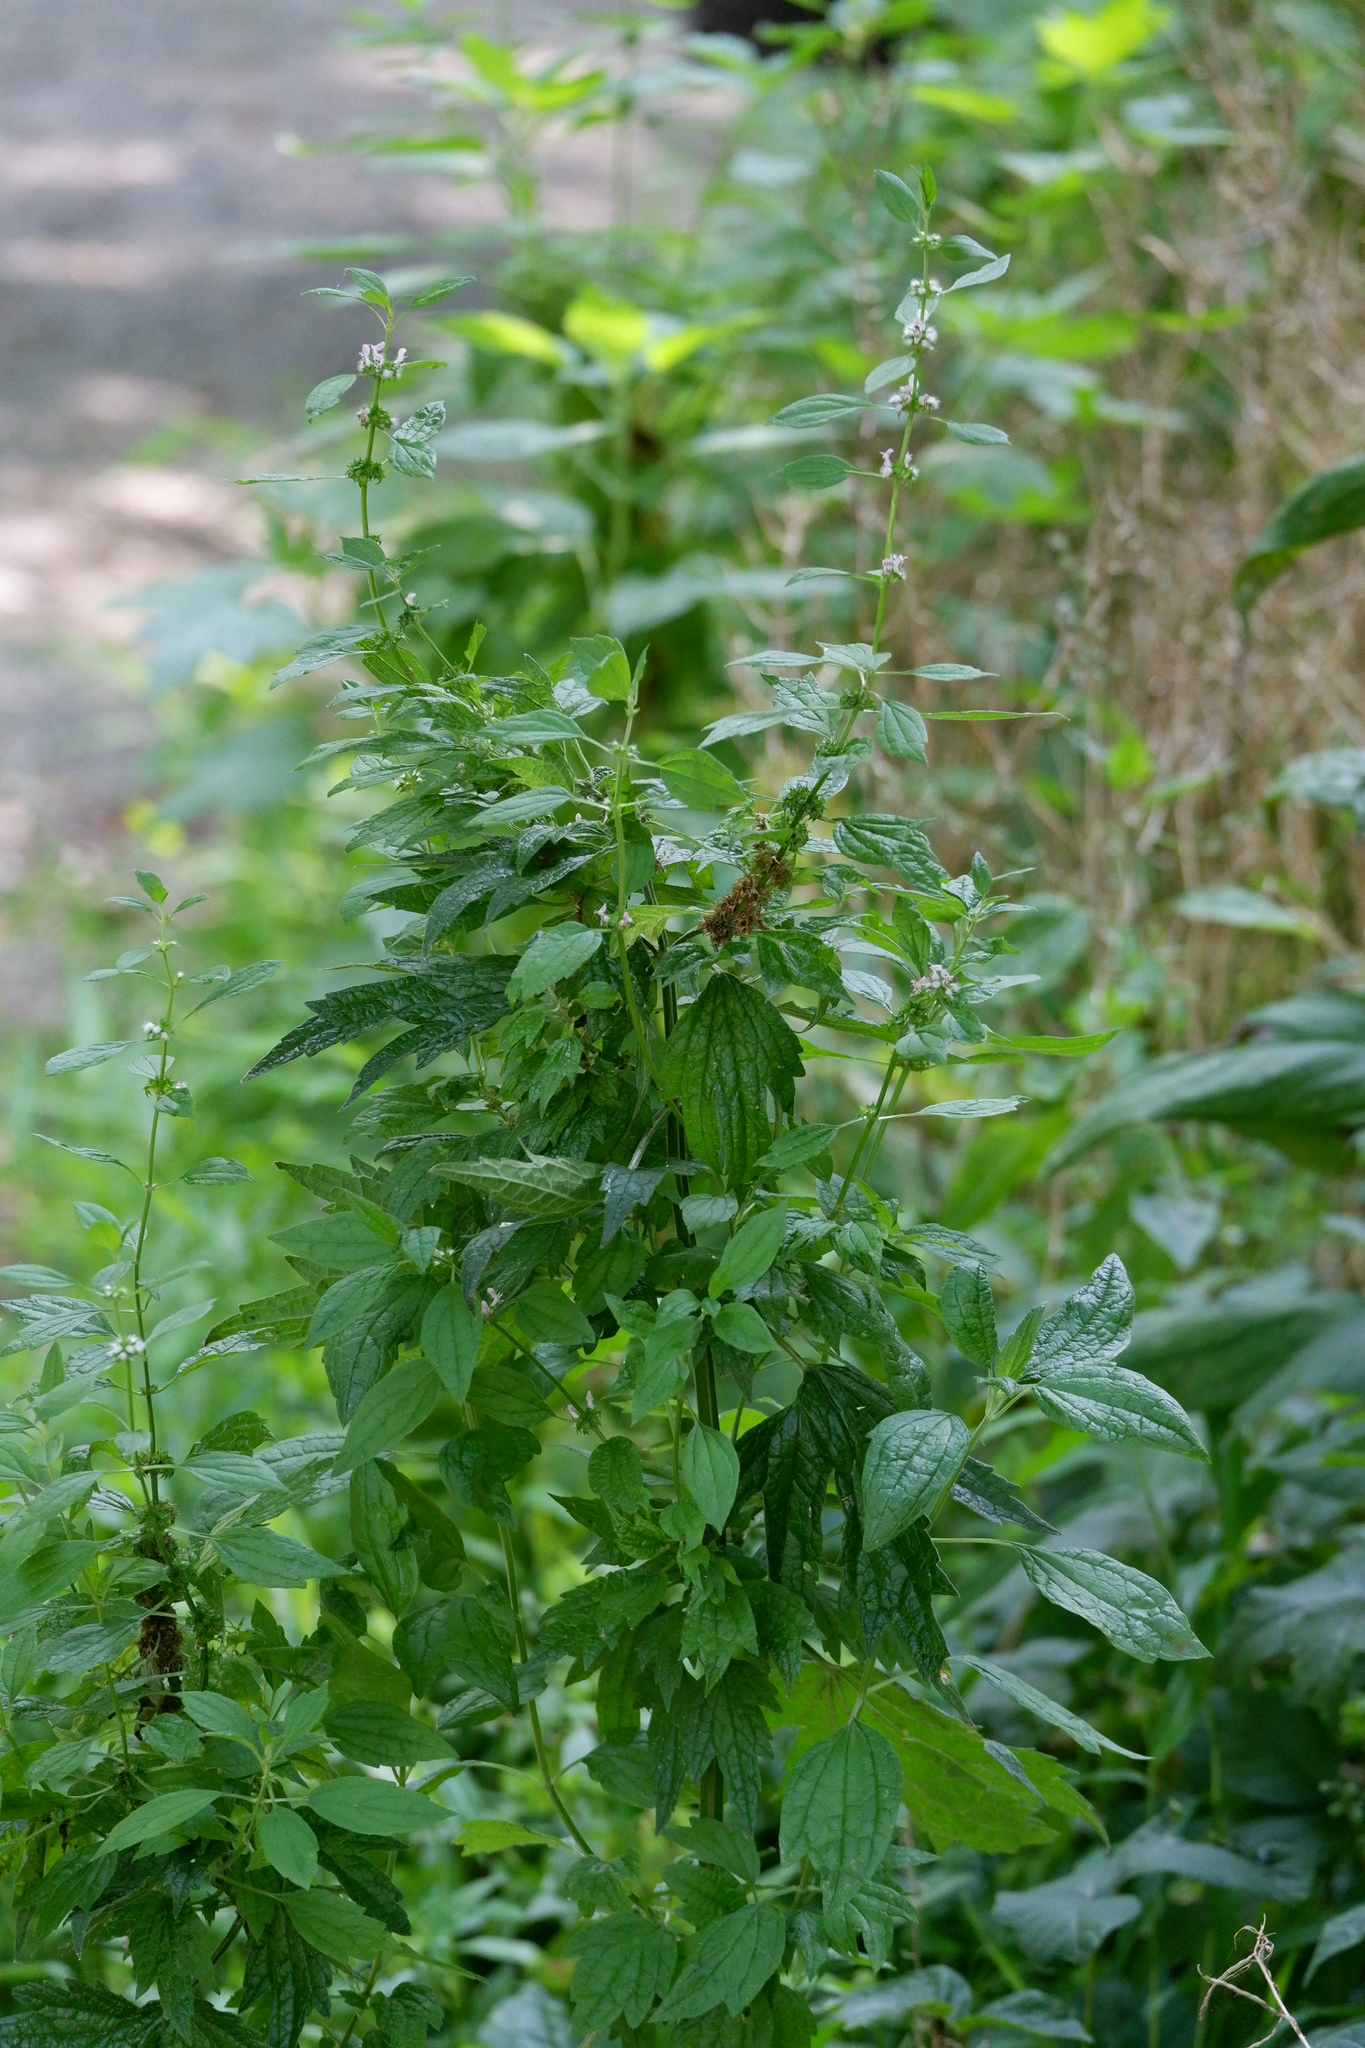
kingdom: Plantae
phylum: Tracheophyta
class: Magnoliopsida
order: Lamiales
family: Lamiaceae
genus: Leonurus
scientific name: Leonurus cardiaca
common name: Motherwort
